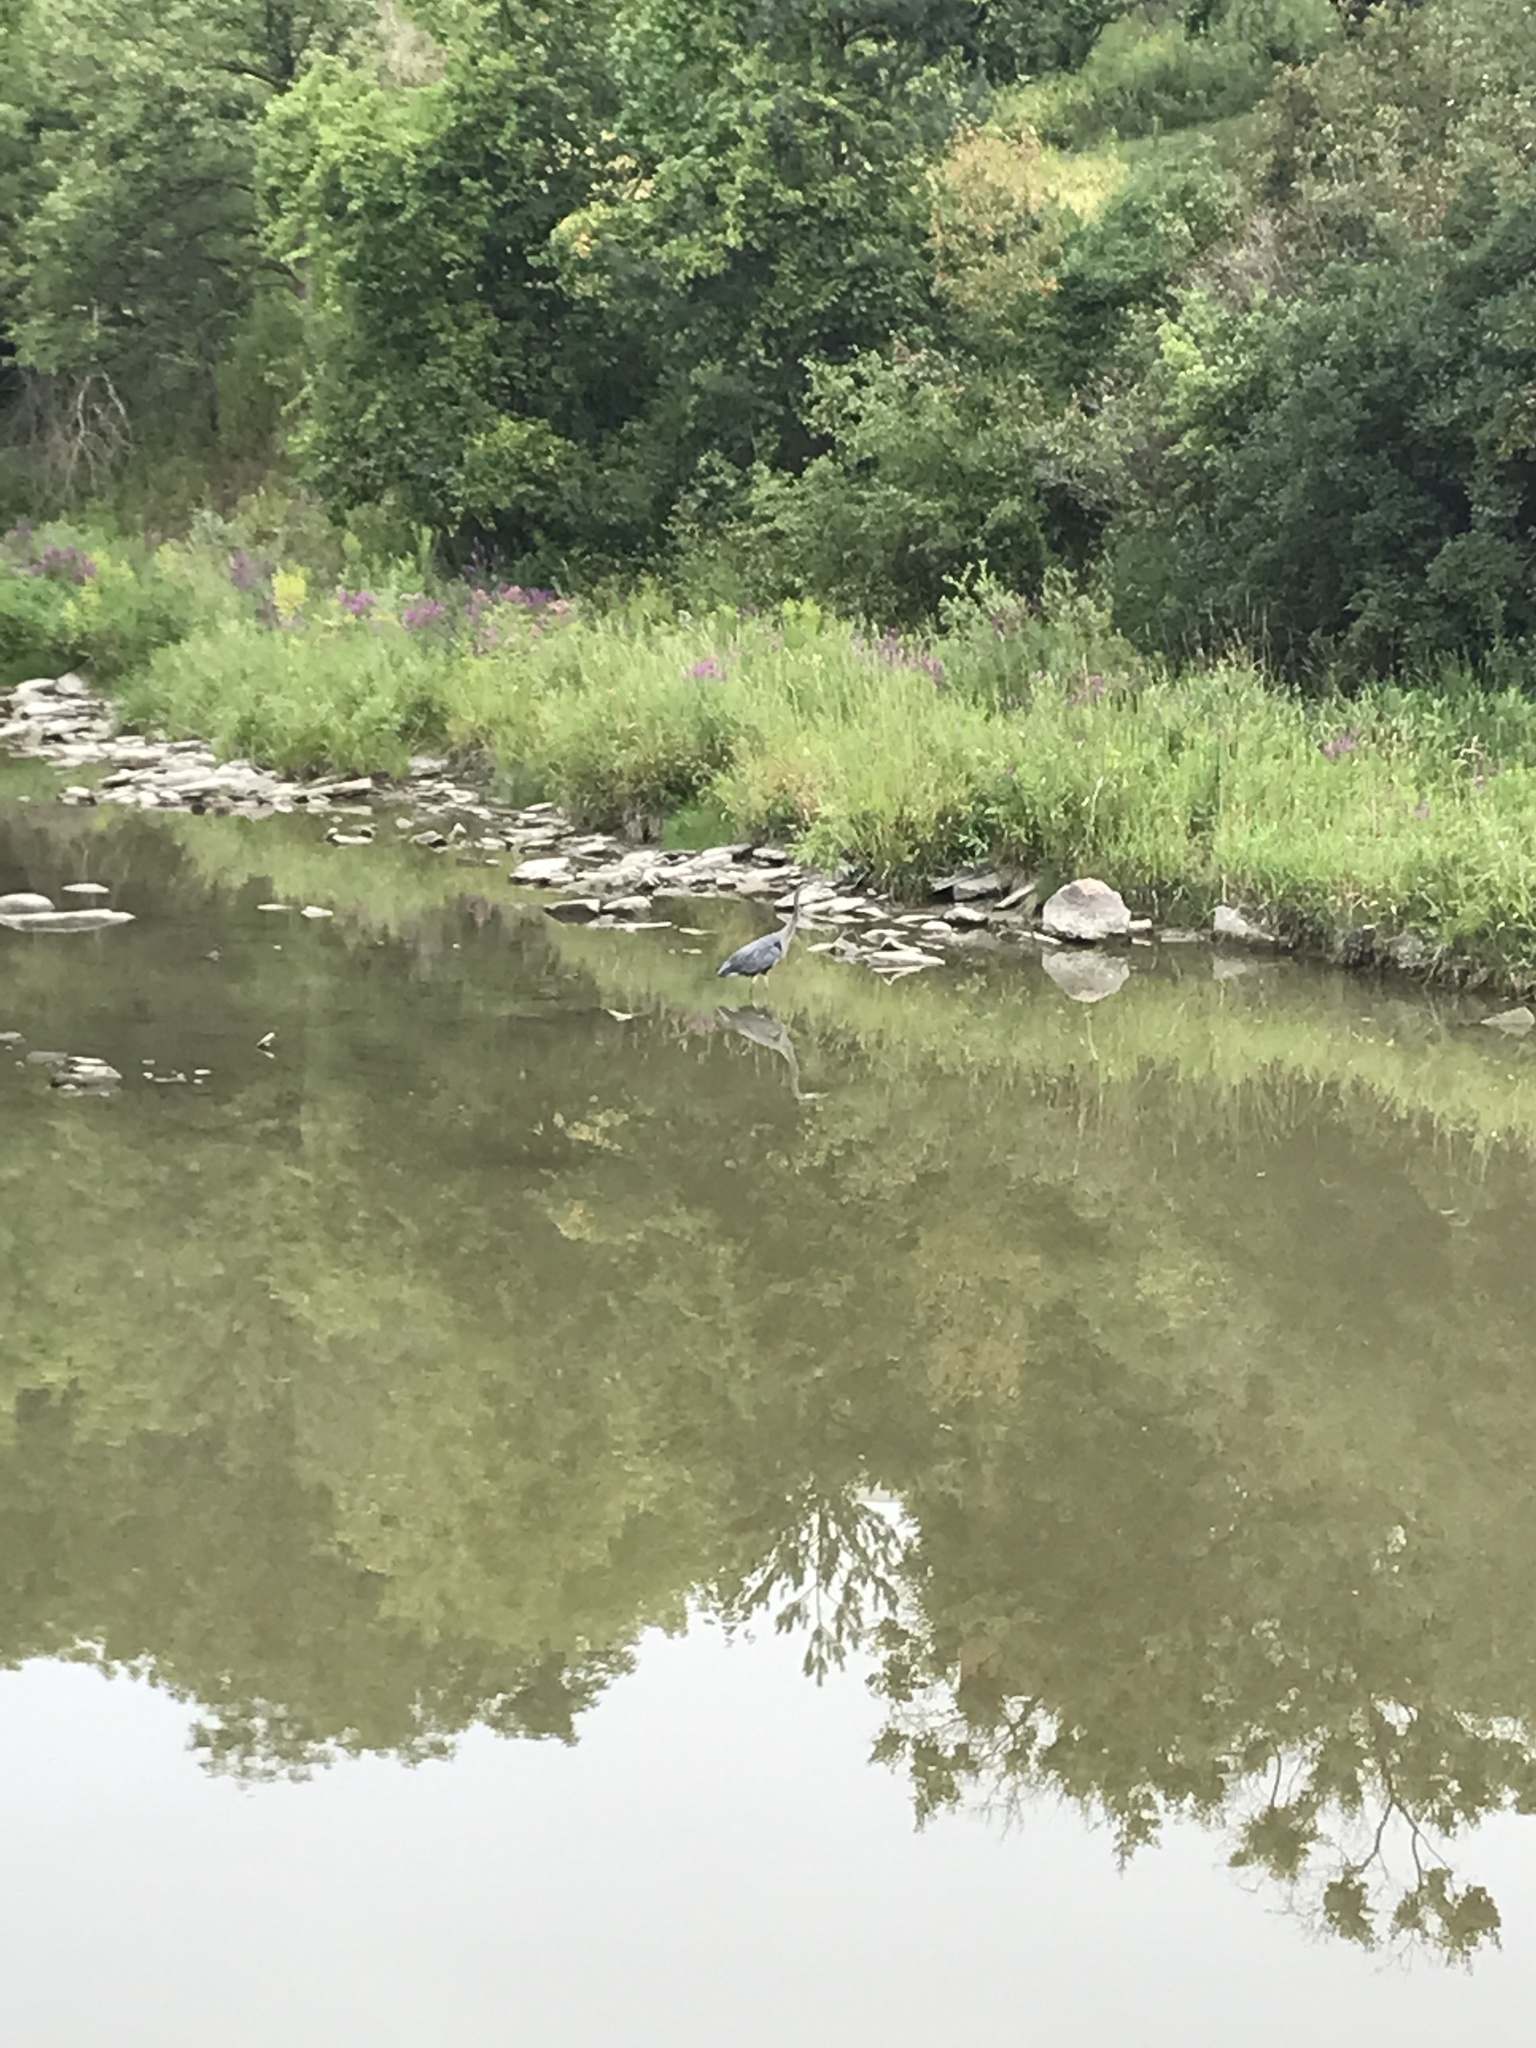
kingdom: Animalia
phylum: Chordata
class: Aves
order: Pelecaniformes
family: Ardeidae
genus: Ardea
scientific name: Ardea herodias
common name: Great blue heron
